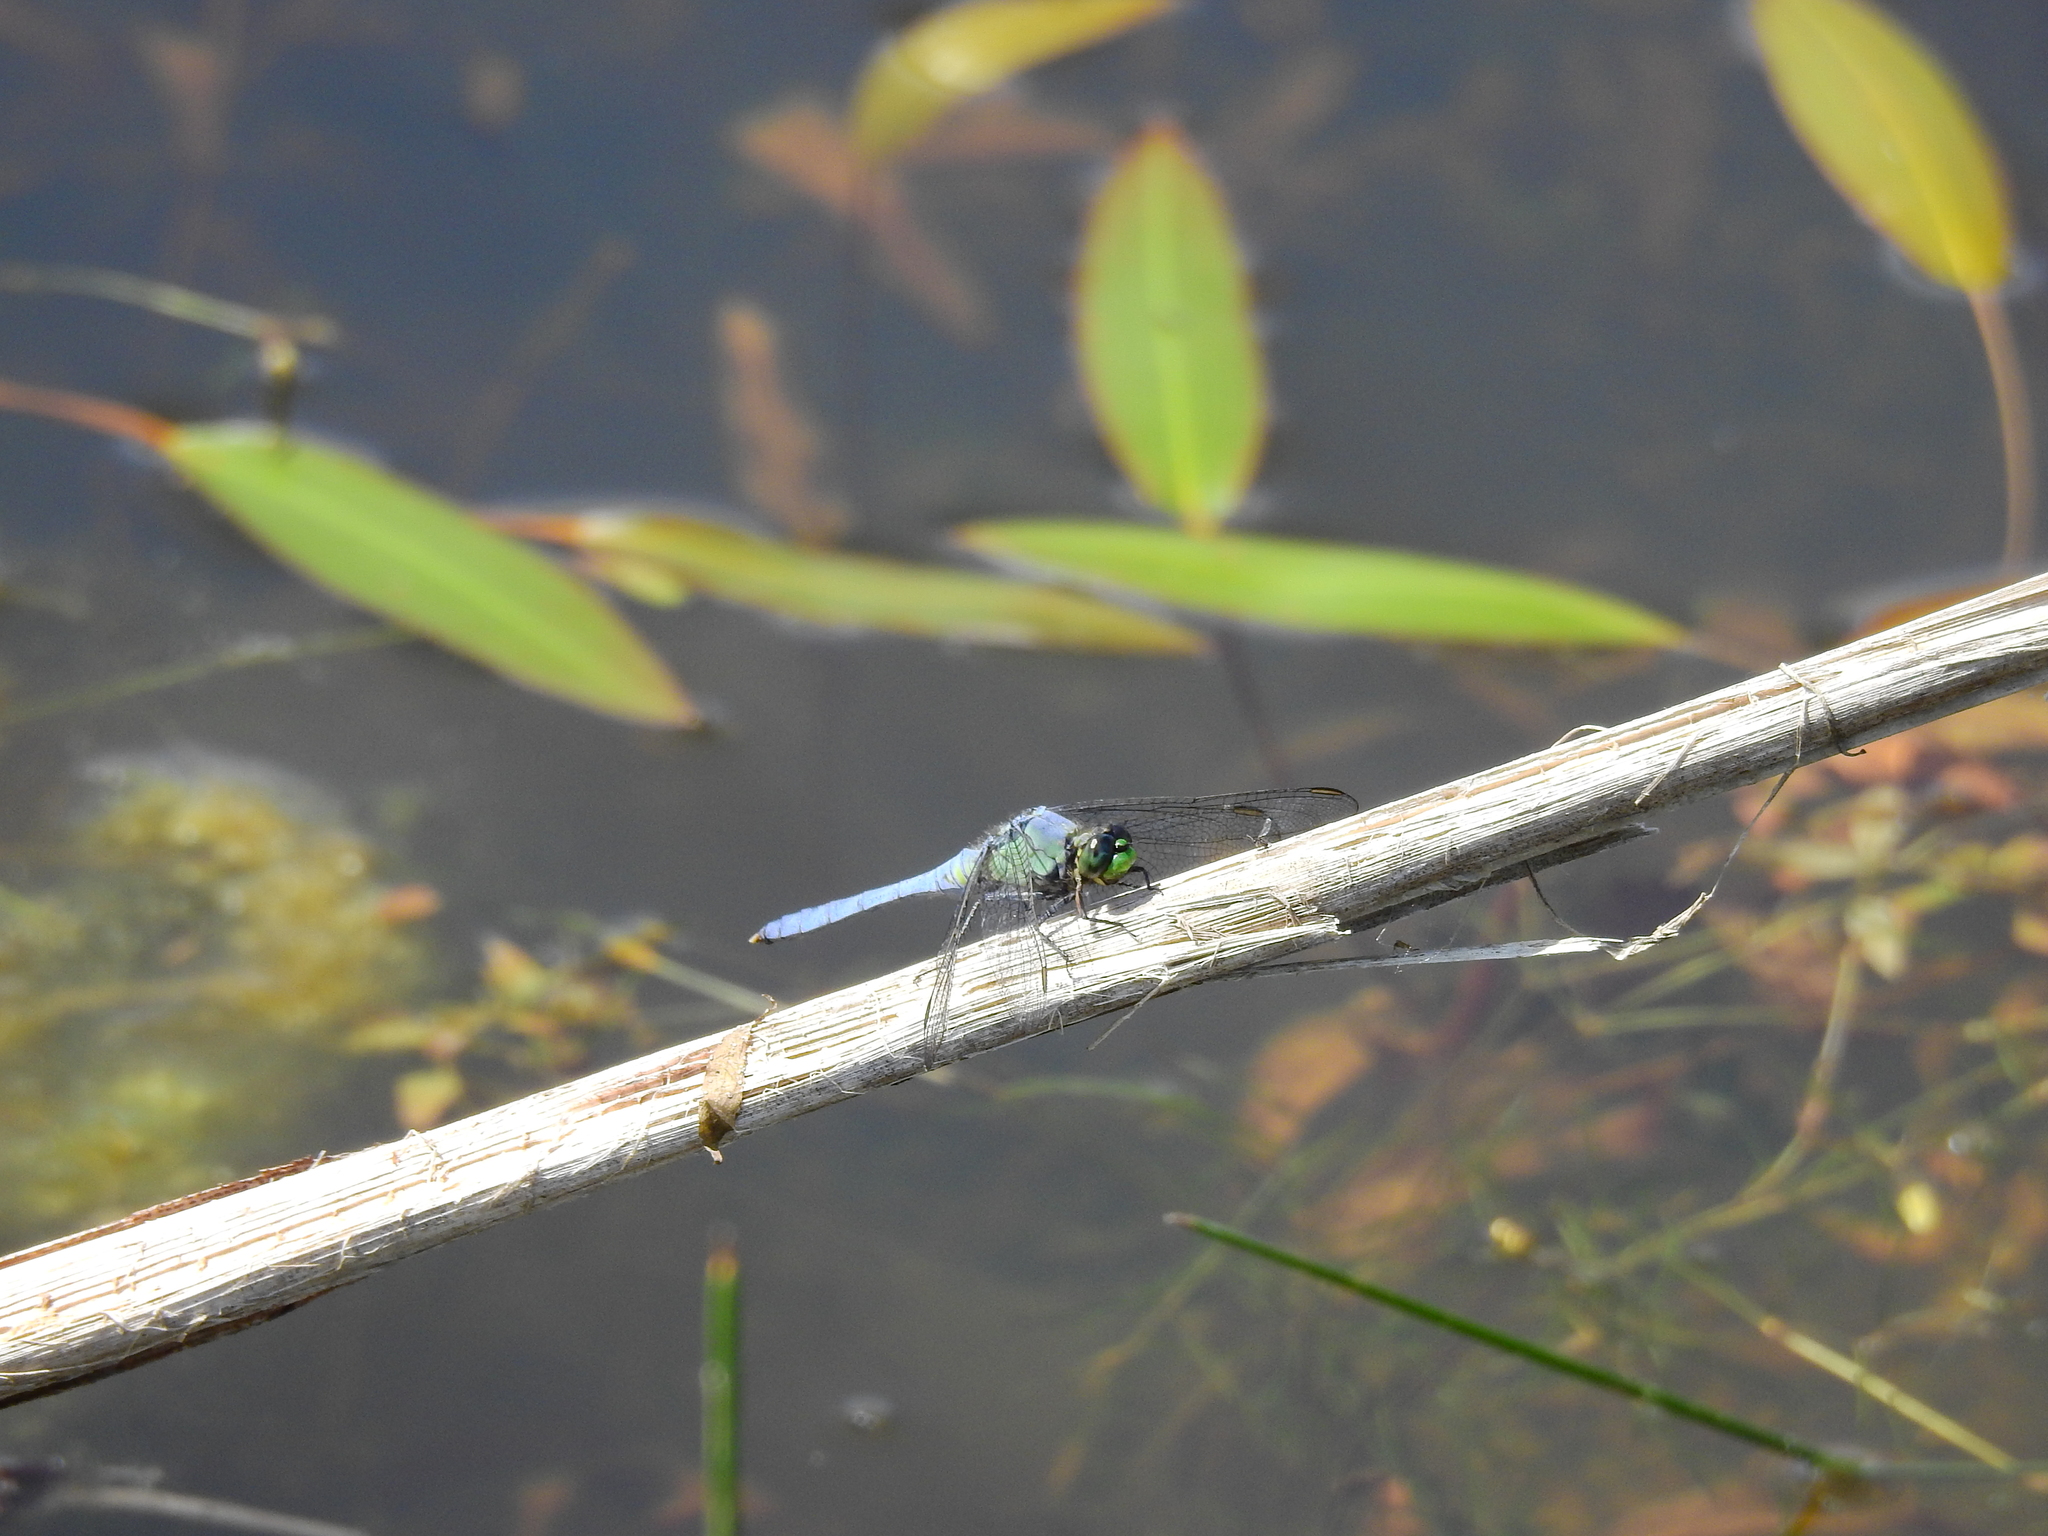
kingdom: Animalia
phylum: Arthropoda
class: Insecta
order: Odonata
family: Libellulidae
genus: Erythemis
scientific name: Erythemis simplicicollis
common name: Eastern pondhawk
